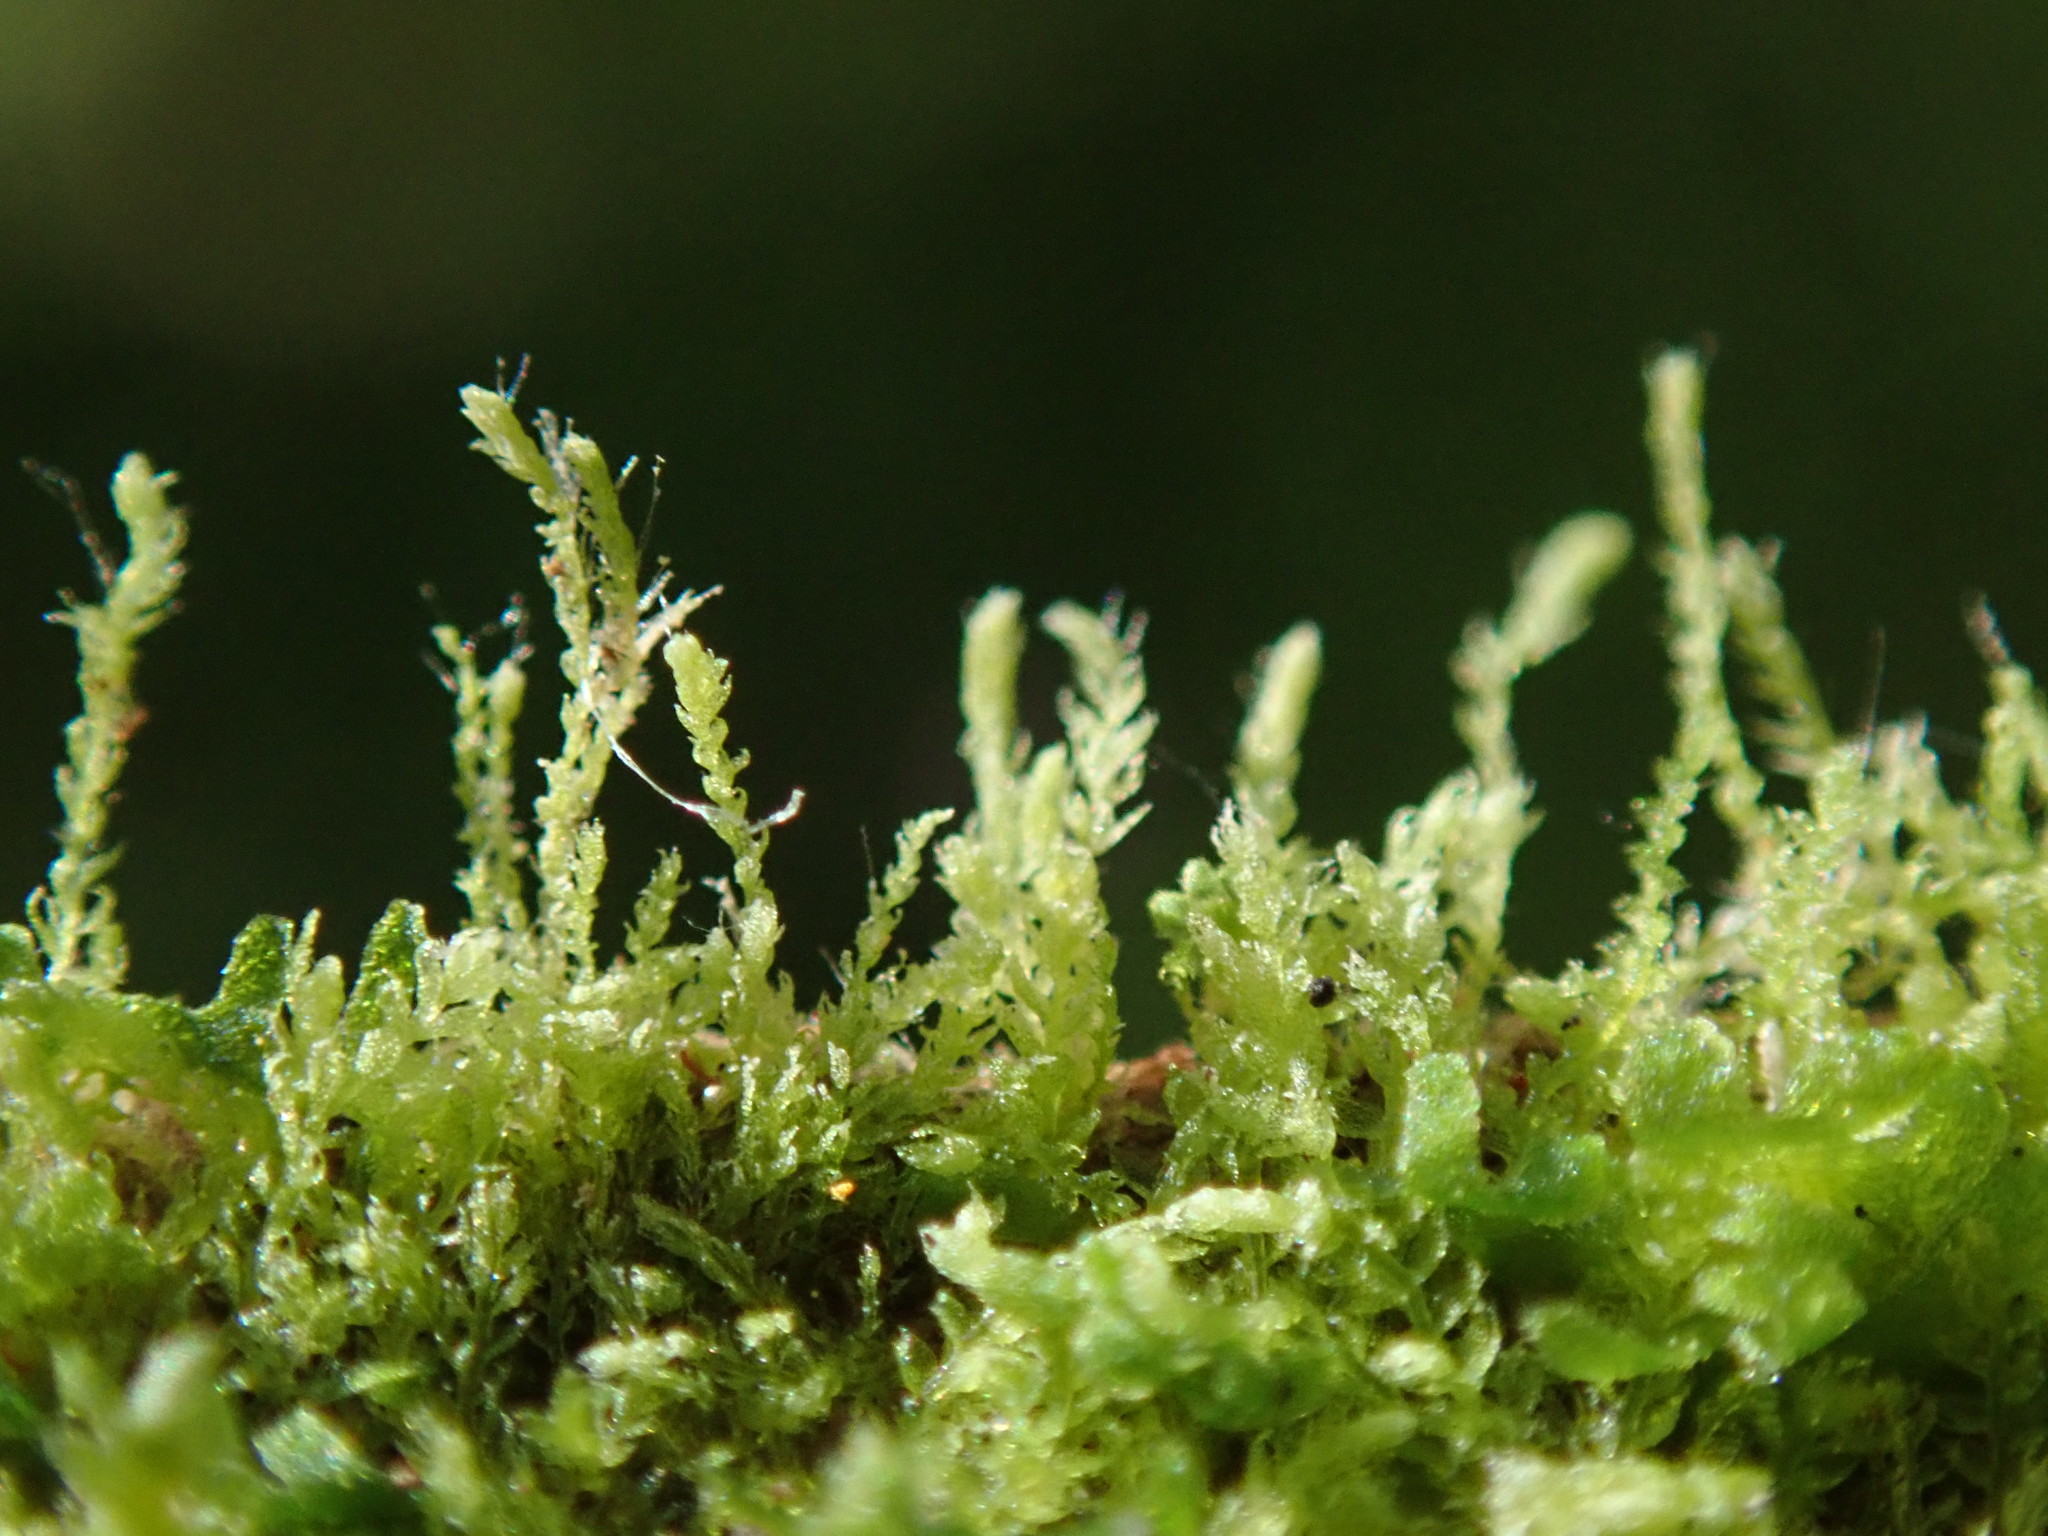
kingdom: Plantae
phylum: Marchantiophyta
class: Jungermanniopsida
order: Jungermanniales
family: Cephaloziaceae
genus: Cephalozia
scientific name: Cephalozia bicuspidata
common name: Two-horned pincerwort
